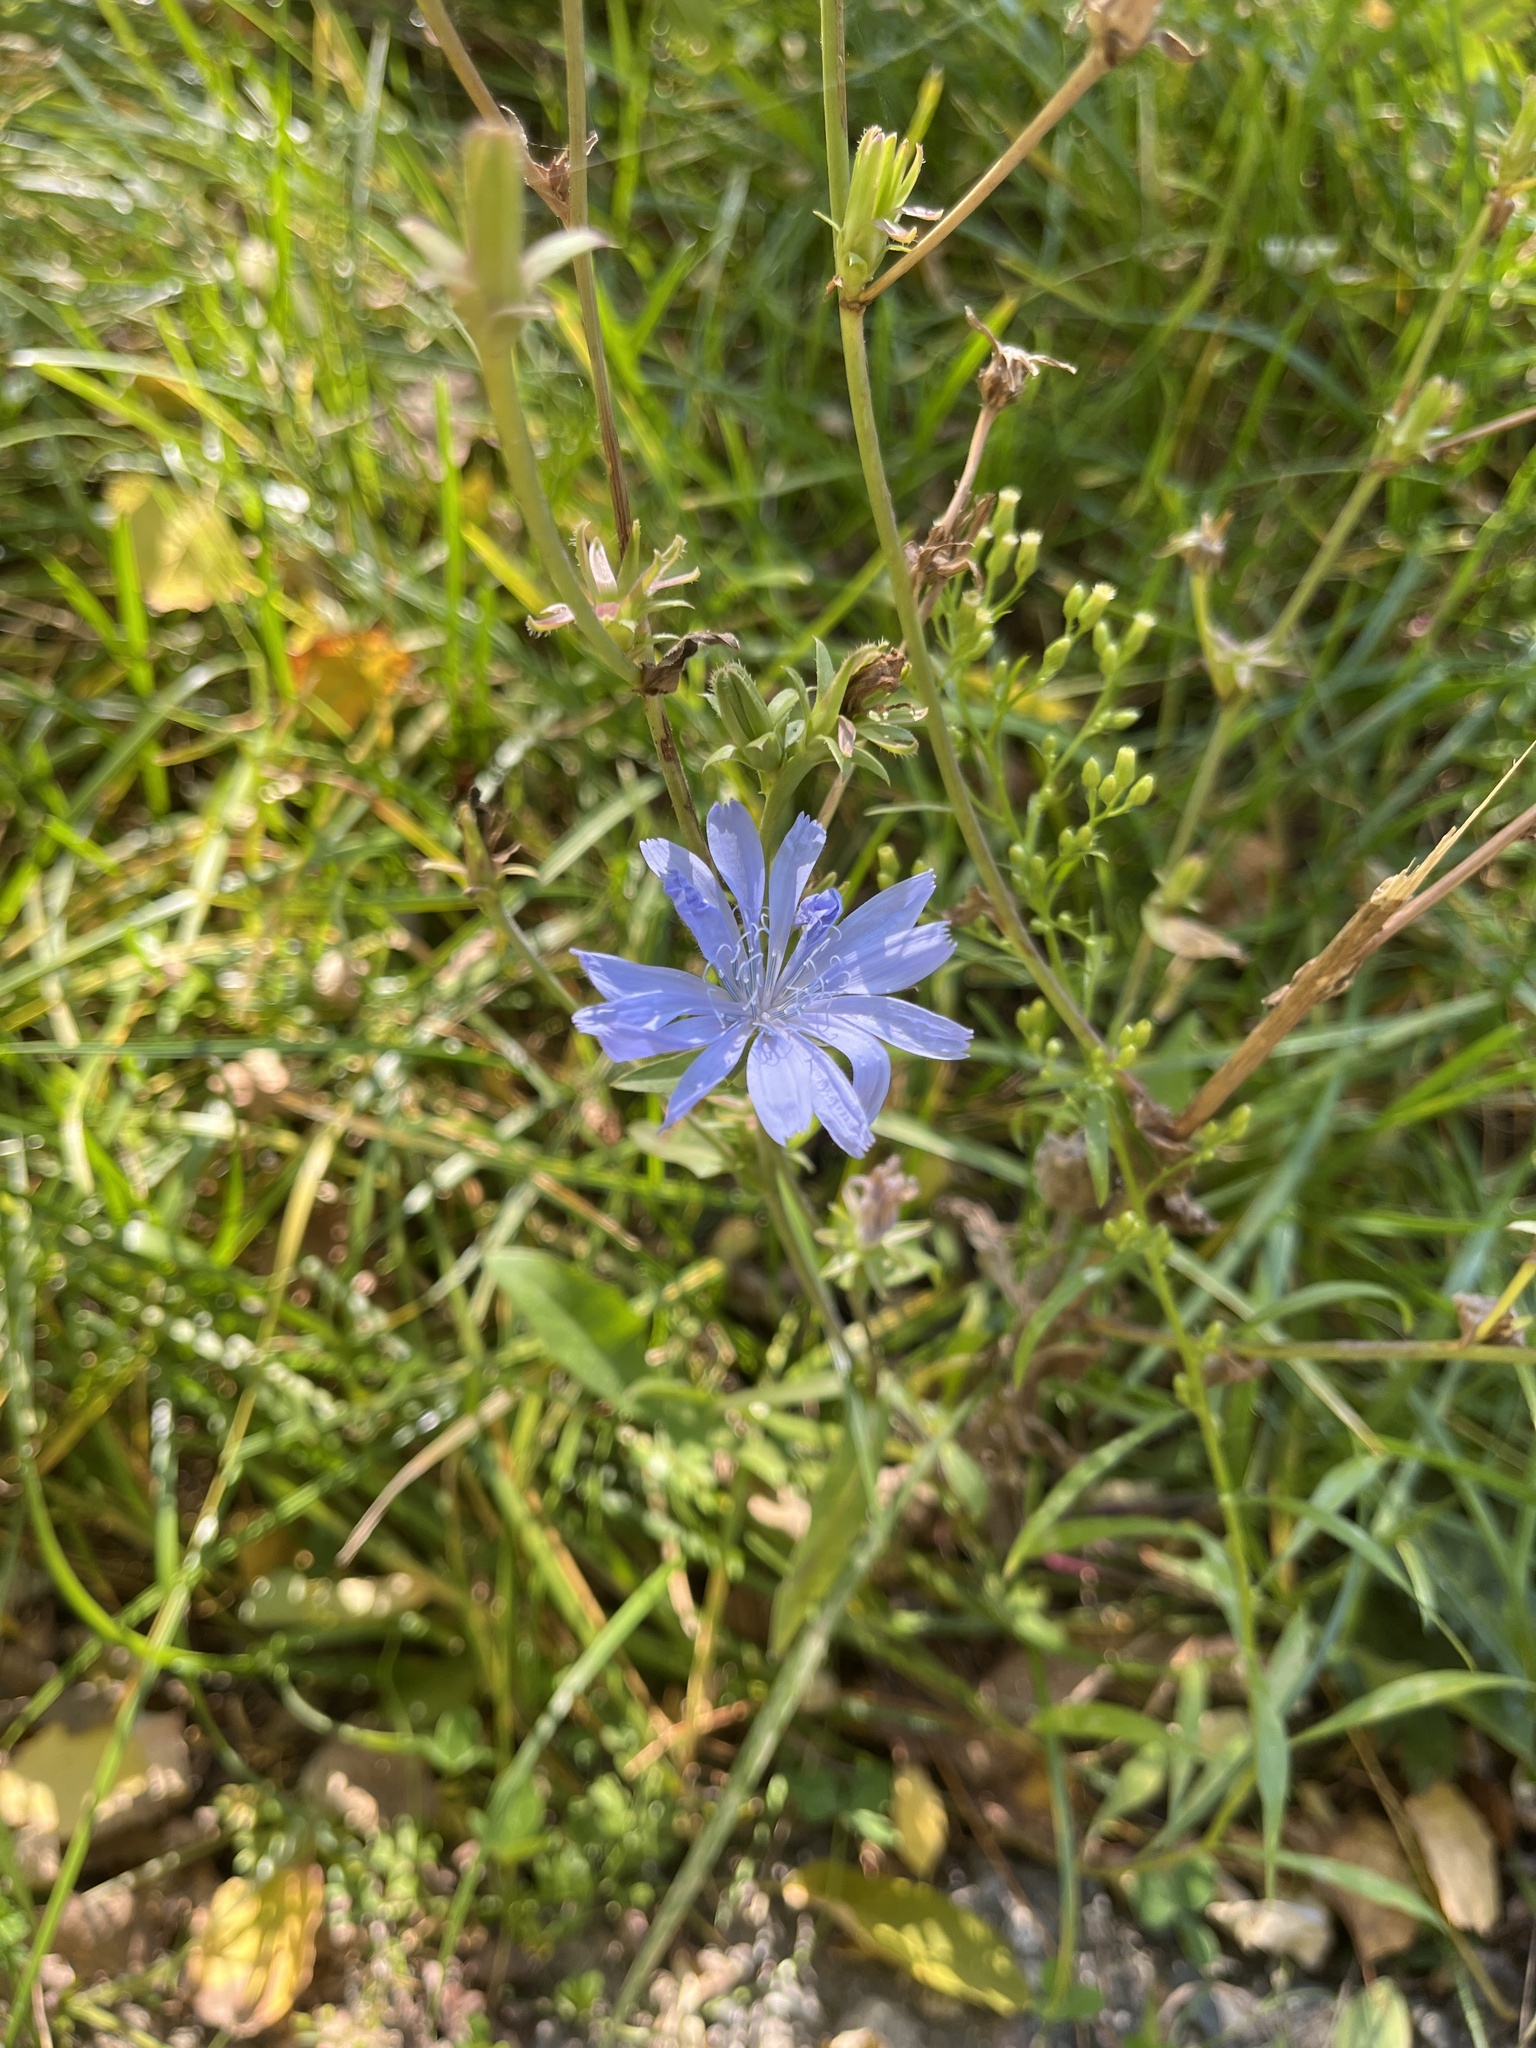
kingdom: Plantae
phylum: Tracheophyta
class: Magnoliopsida
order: Asterales
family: Asteraceae
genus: Cichorium
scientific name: Cichorium intybus
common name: Chicory
